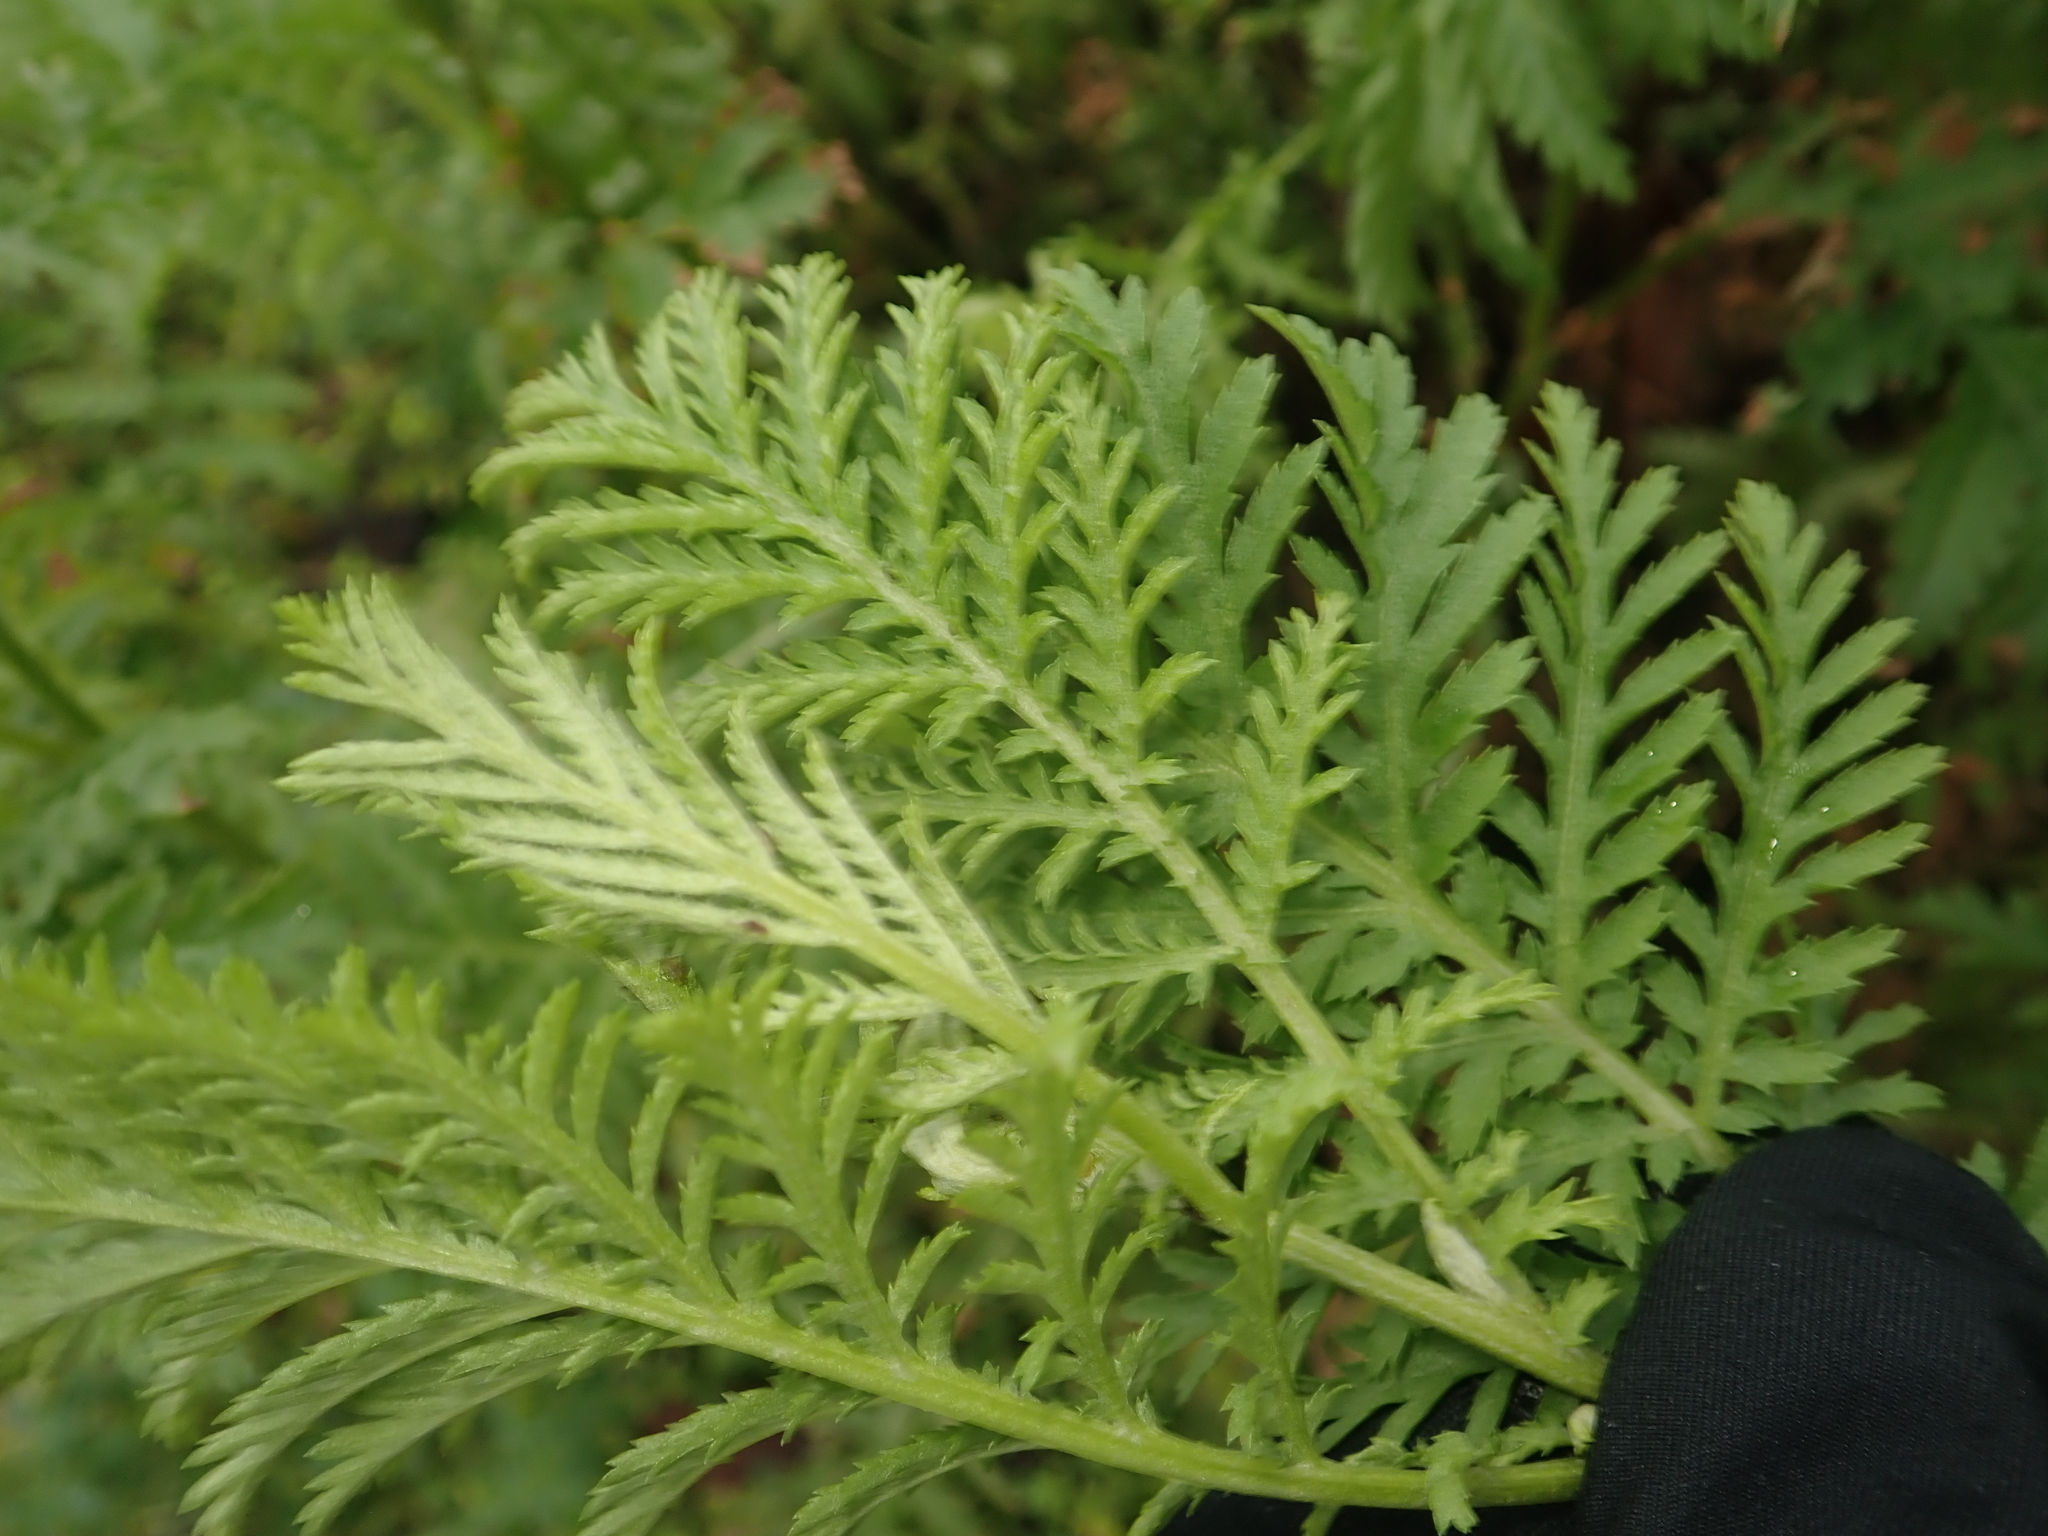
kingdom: Plantae
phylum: Tracheophyta
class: Magnoliopsida
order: Asterales
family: Asteraceae
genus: Tanacetum
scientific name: Tanacetum vulgare
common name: Common tansy
